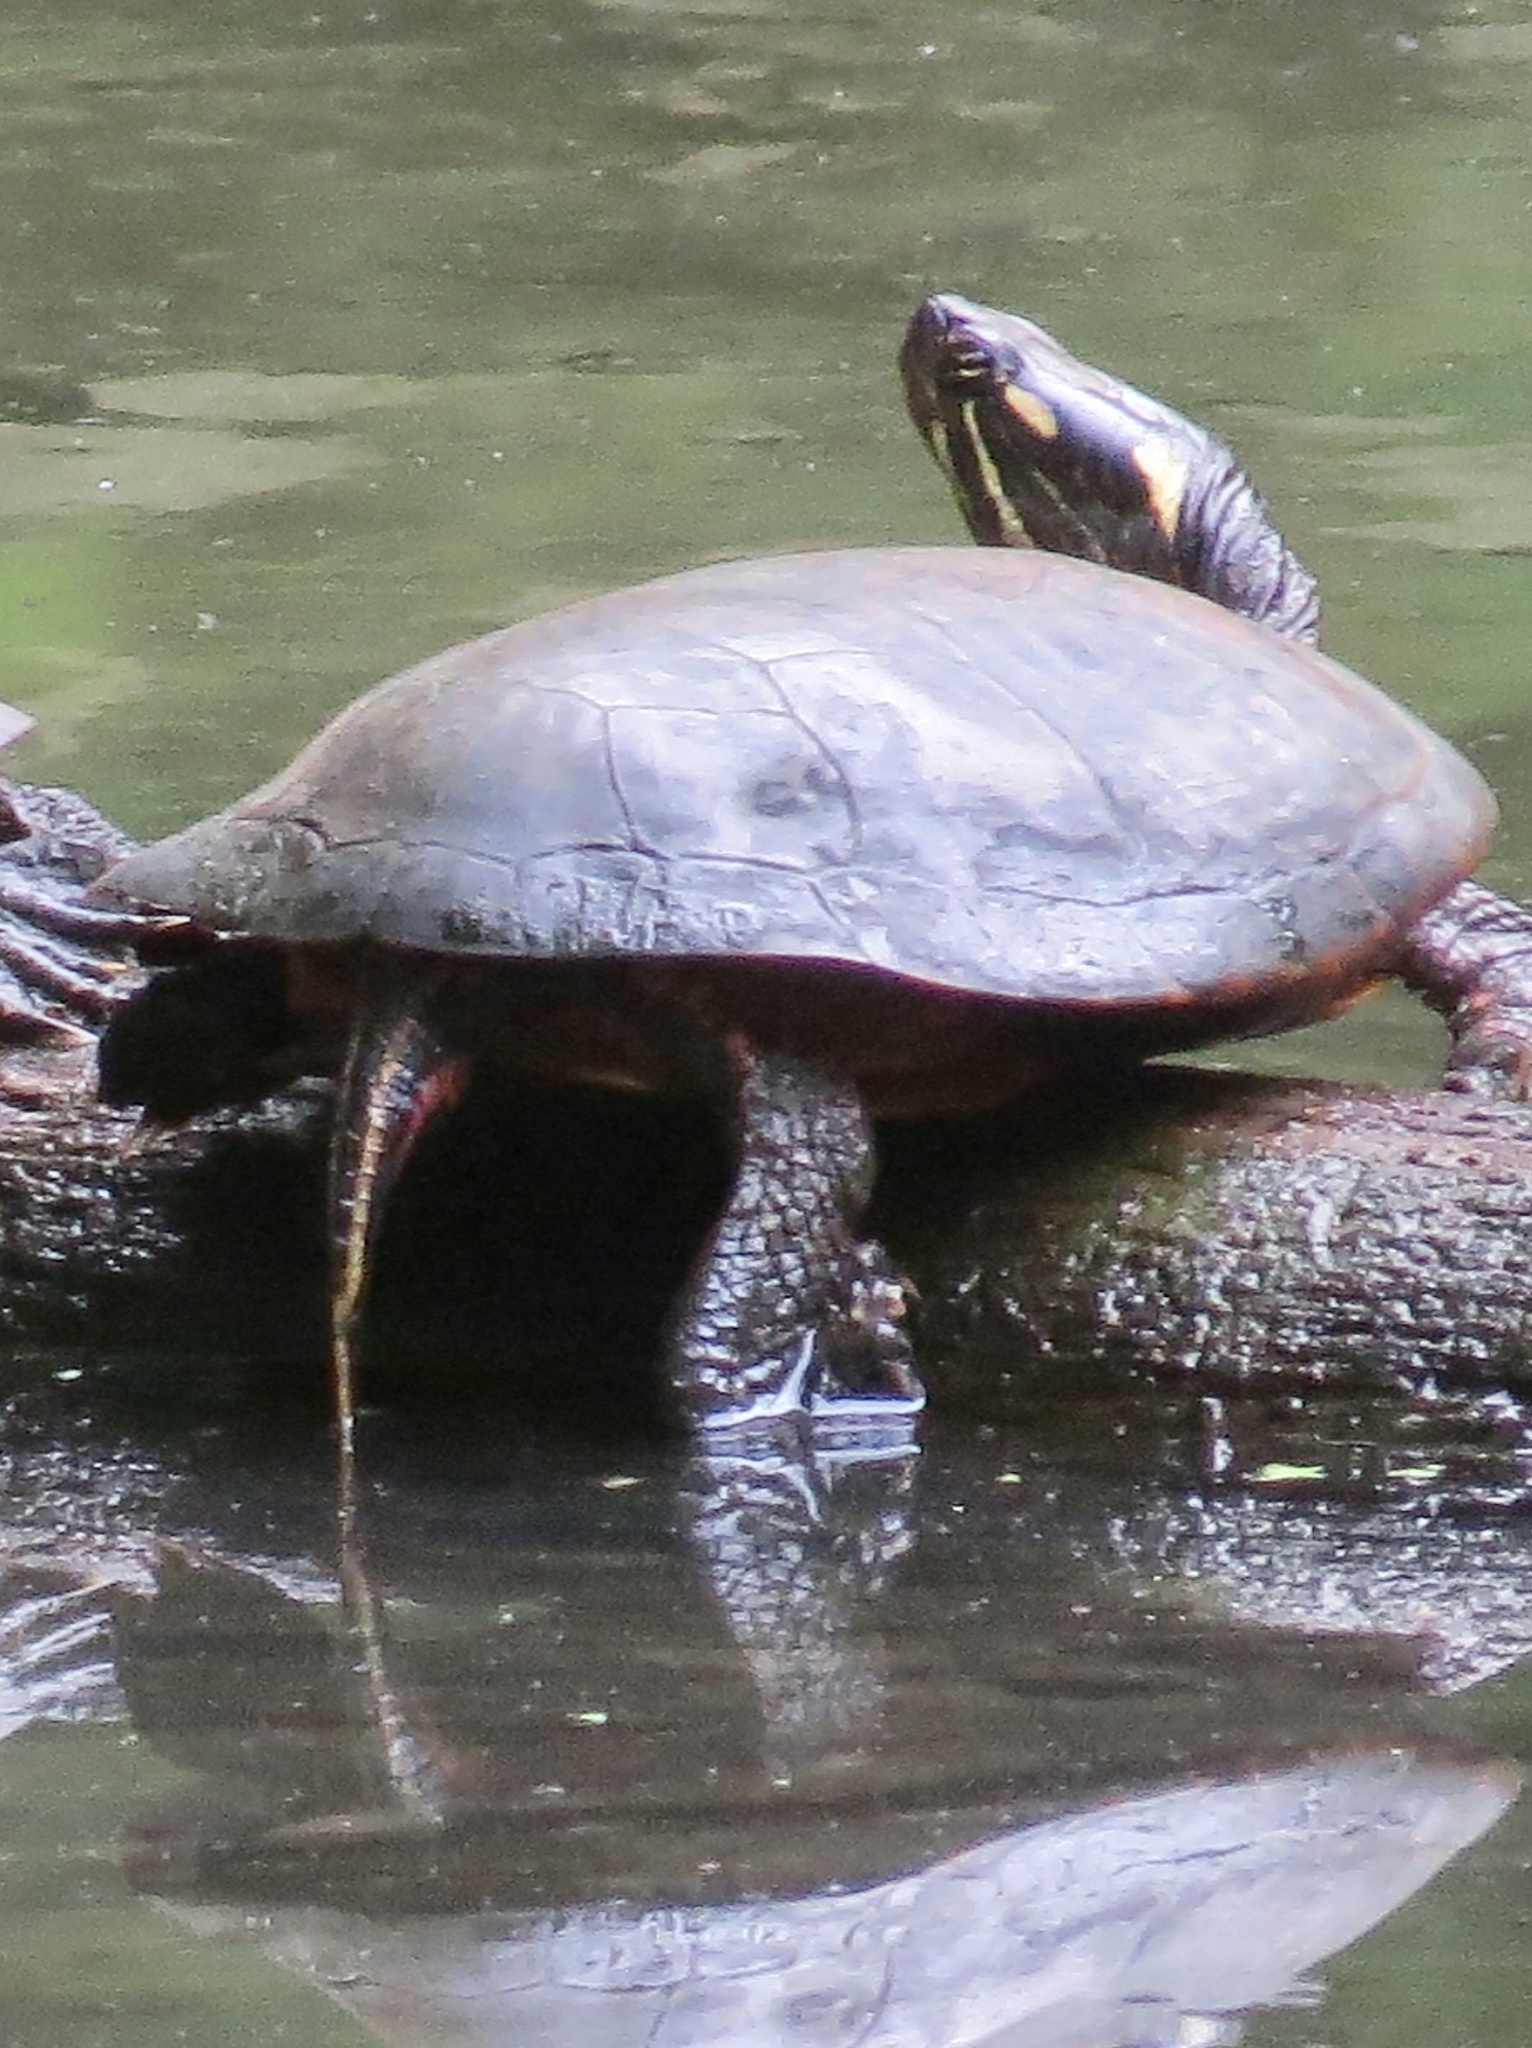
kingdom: Animalia
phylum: Chordata
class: Testudines
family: Emydidae
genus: Chrysemys
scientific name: Chrysemys picta
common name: Painted turtle
